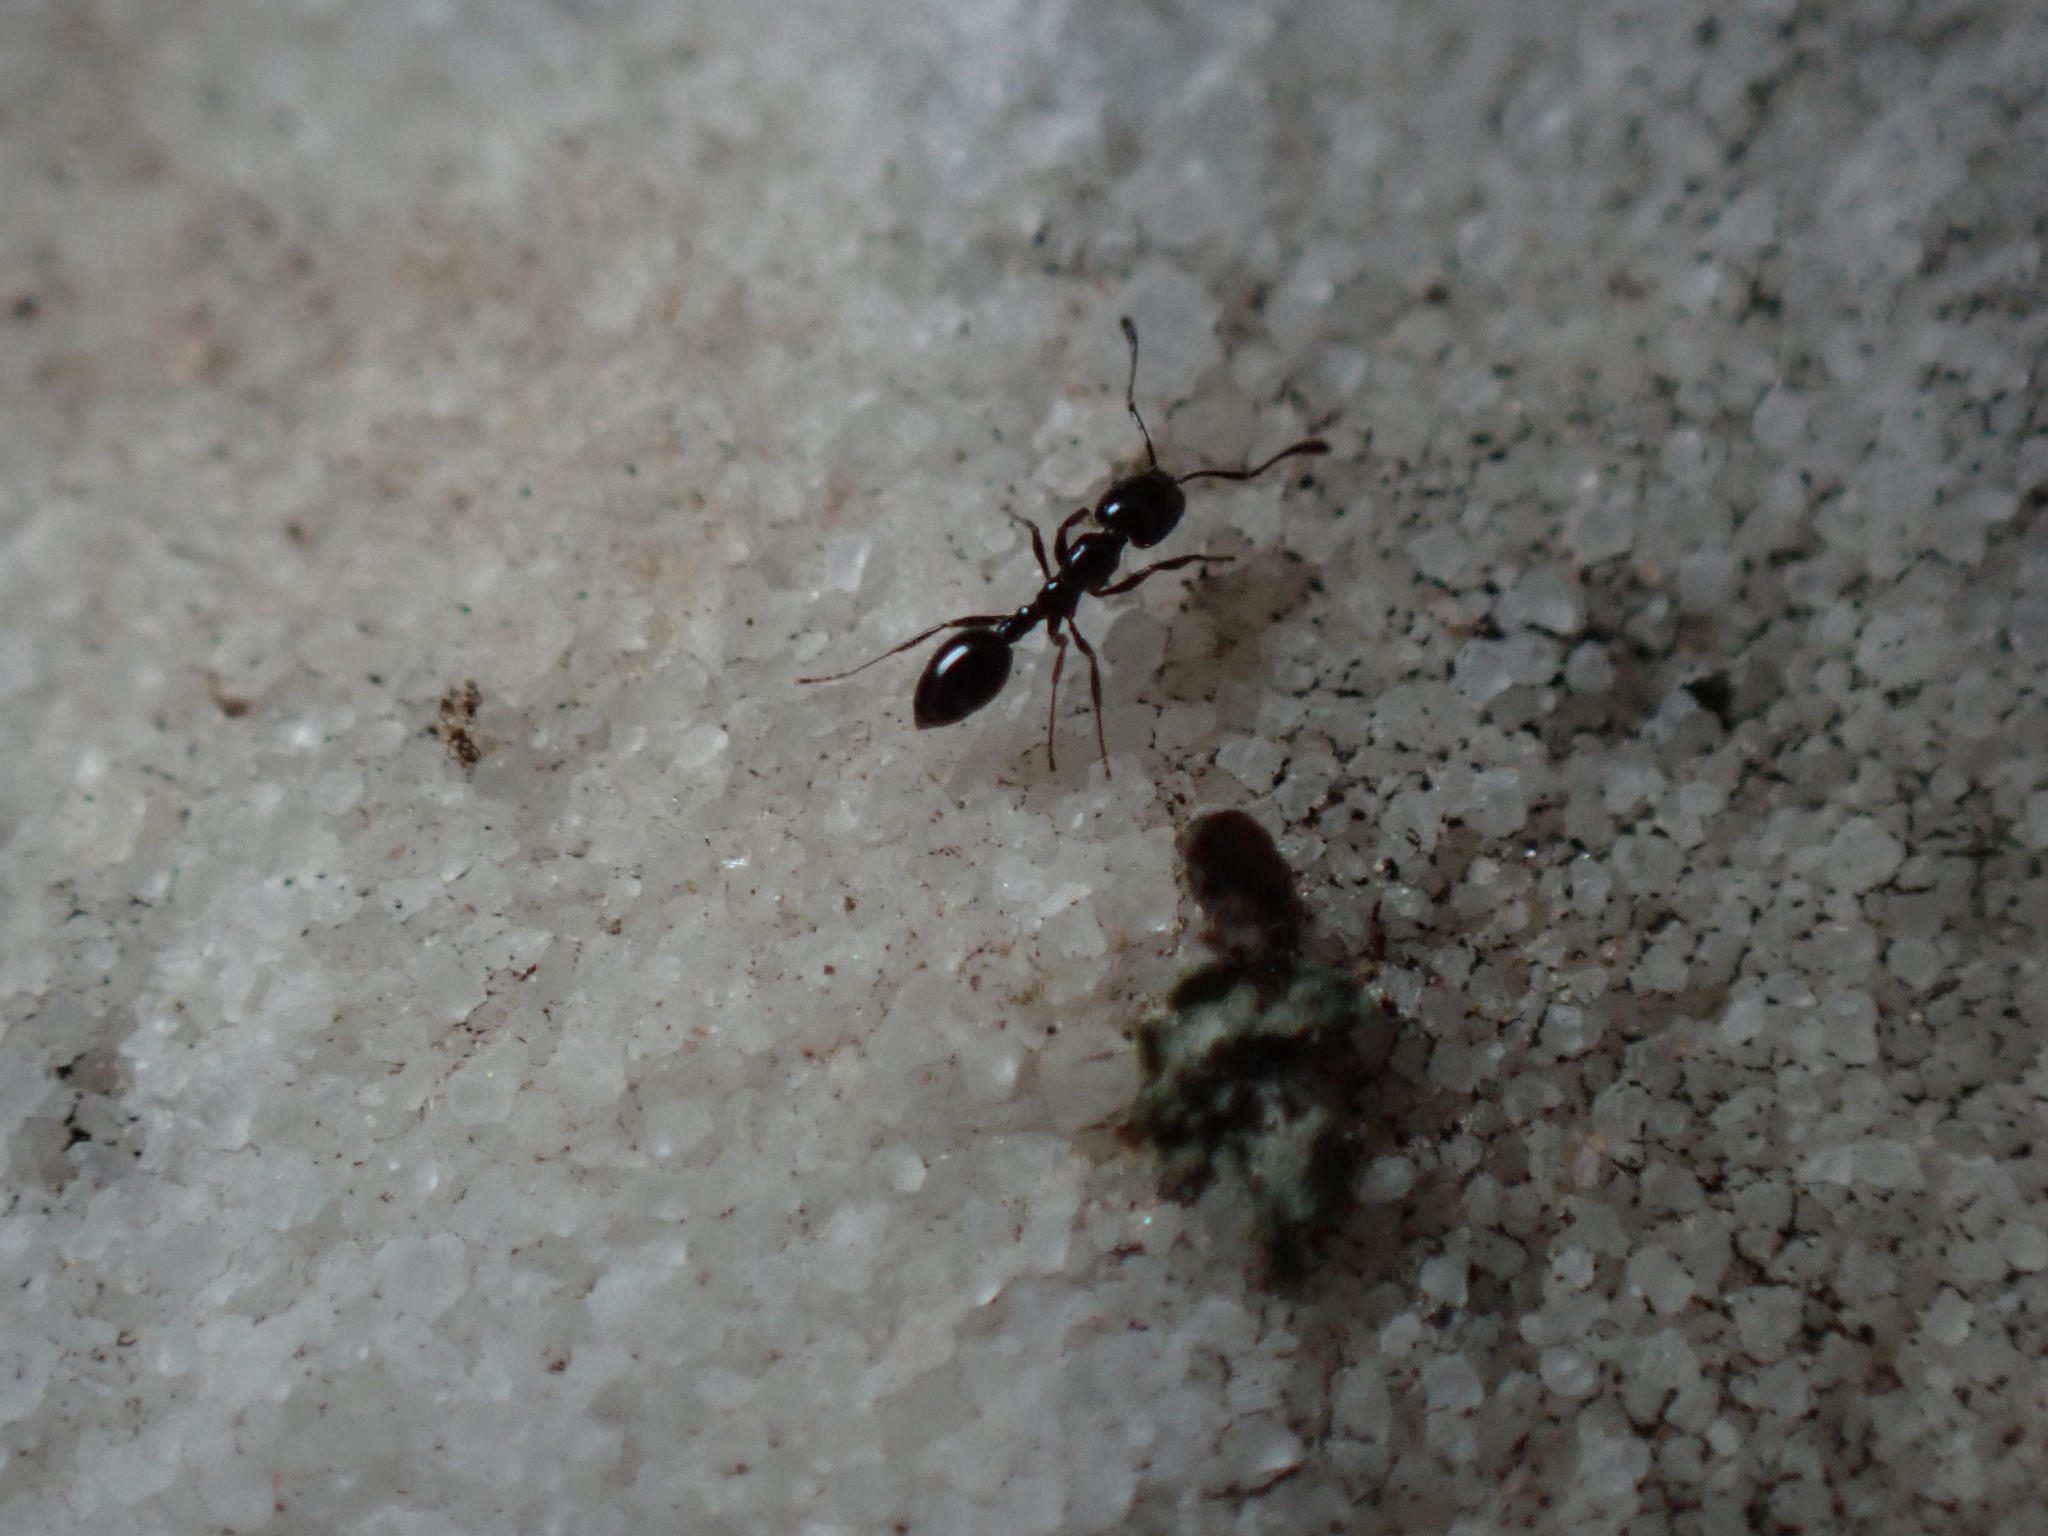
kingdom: Animalia
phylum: Arthropoda
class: Insecta
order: Hymenoptera
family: Formicidae
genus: Monomorium
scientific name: Monomorium minimum
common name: Little black ant
